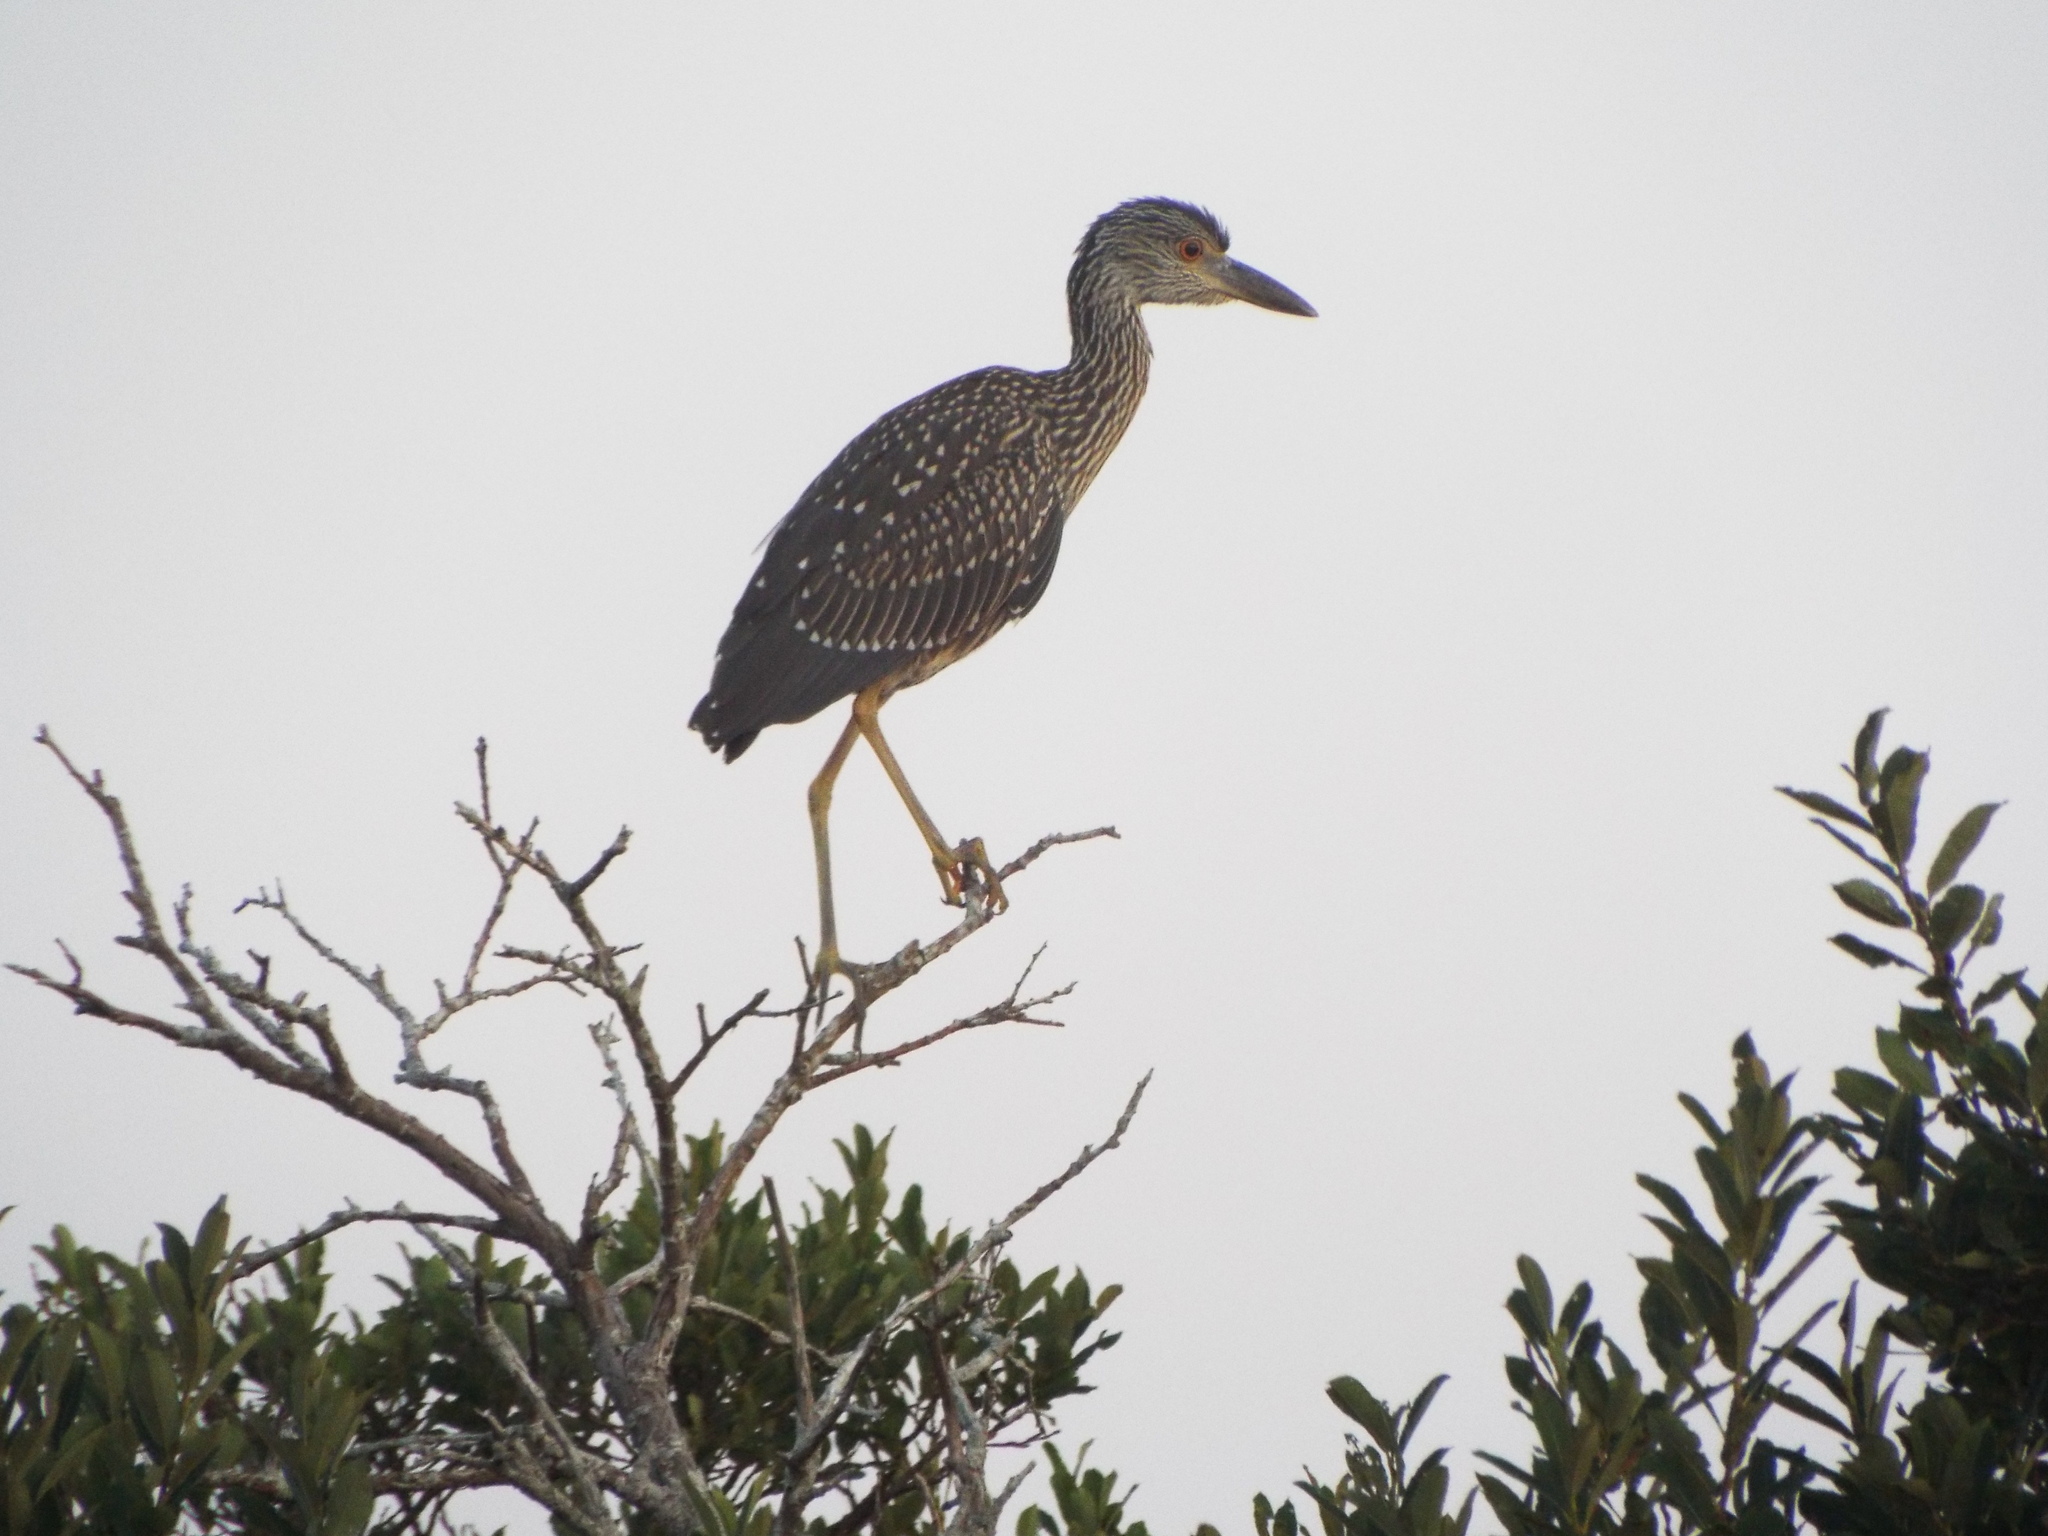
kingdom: Animalia
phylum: Chordata
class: Aves
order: Pelecaniformes
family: Ardeidae
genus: Nyctanassa
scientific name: Nyctanassa violacea
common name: Yellow-crowned night heron
